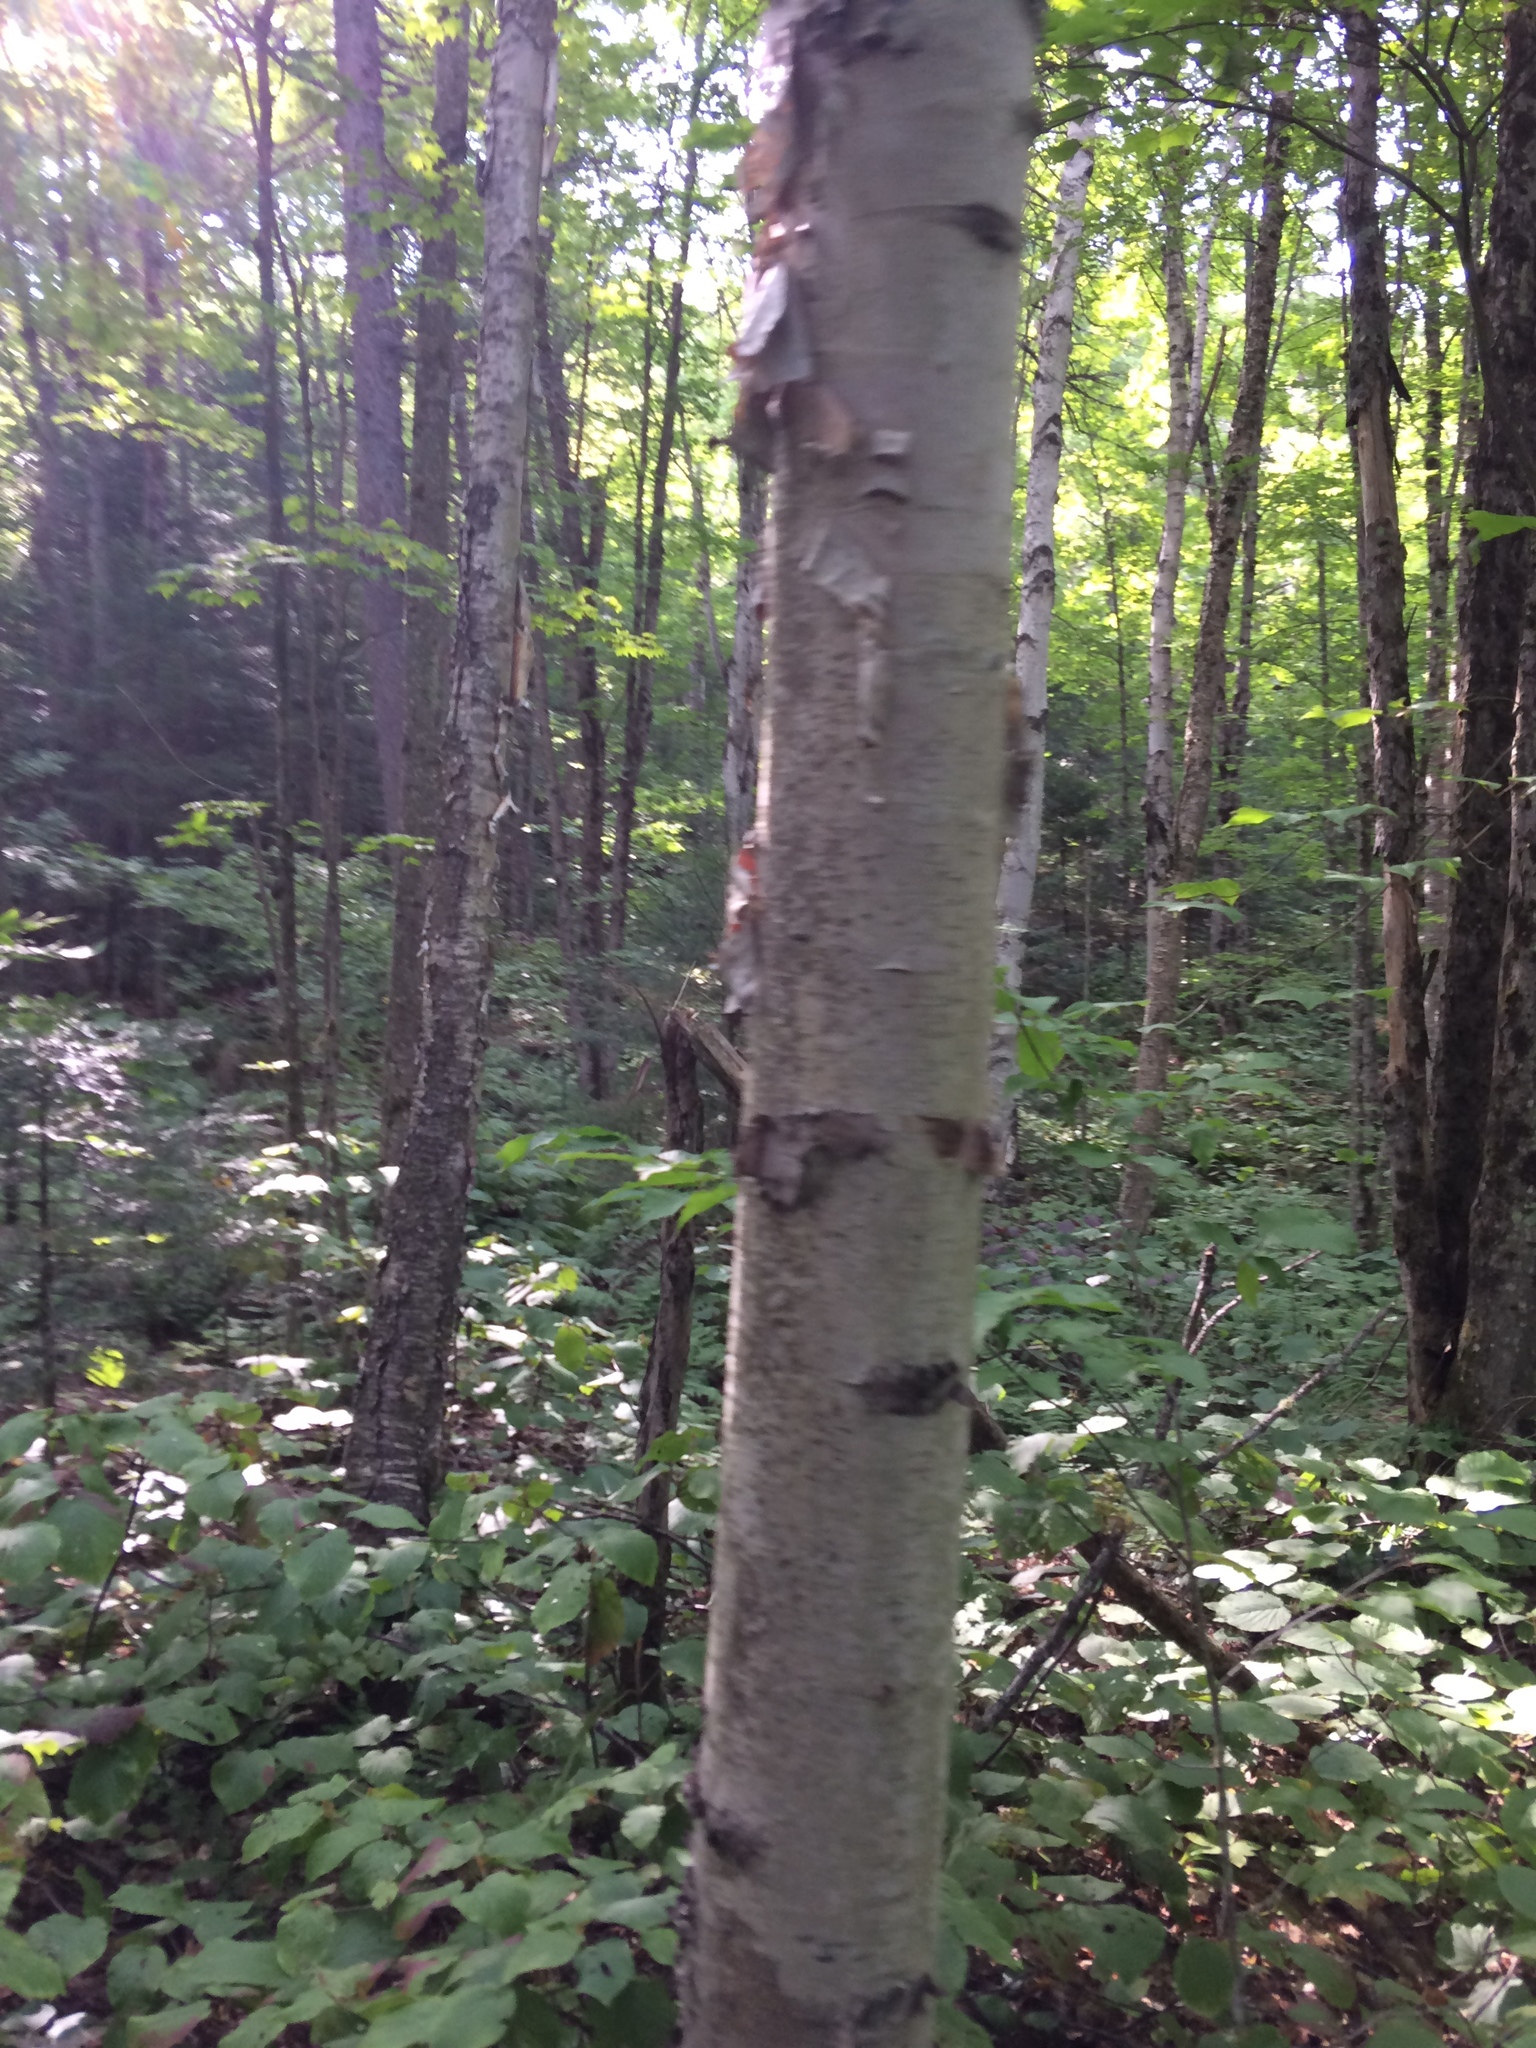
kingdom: Plantae
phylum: Tracheophyta
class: Magnoliopsida
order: Fagales
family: Betulaceae
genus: Betula
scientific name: Betula papyrifera
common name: Paper birch
